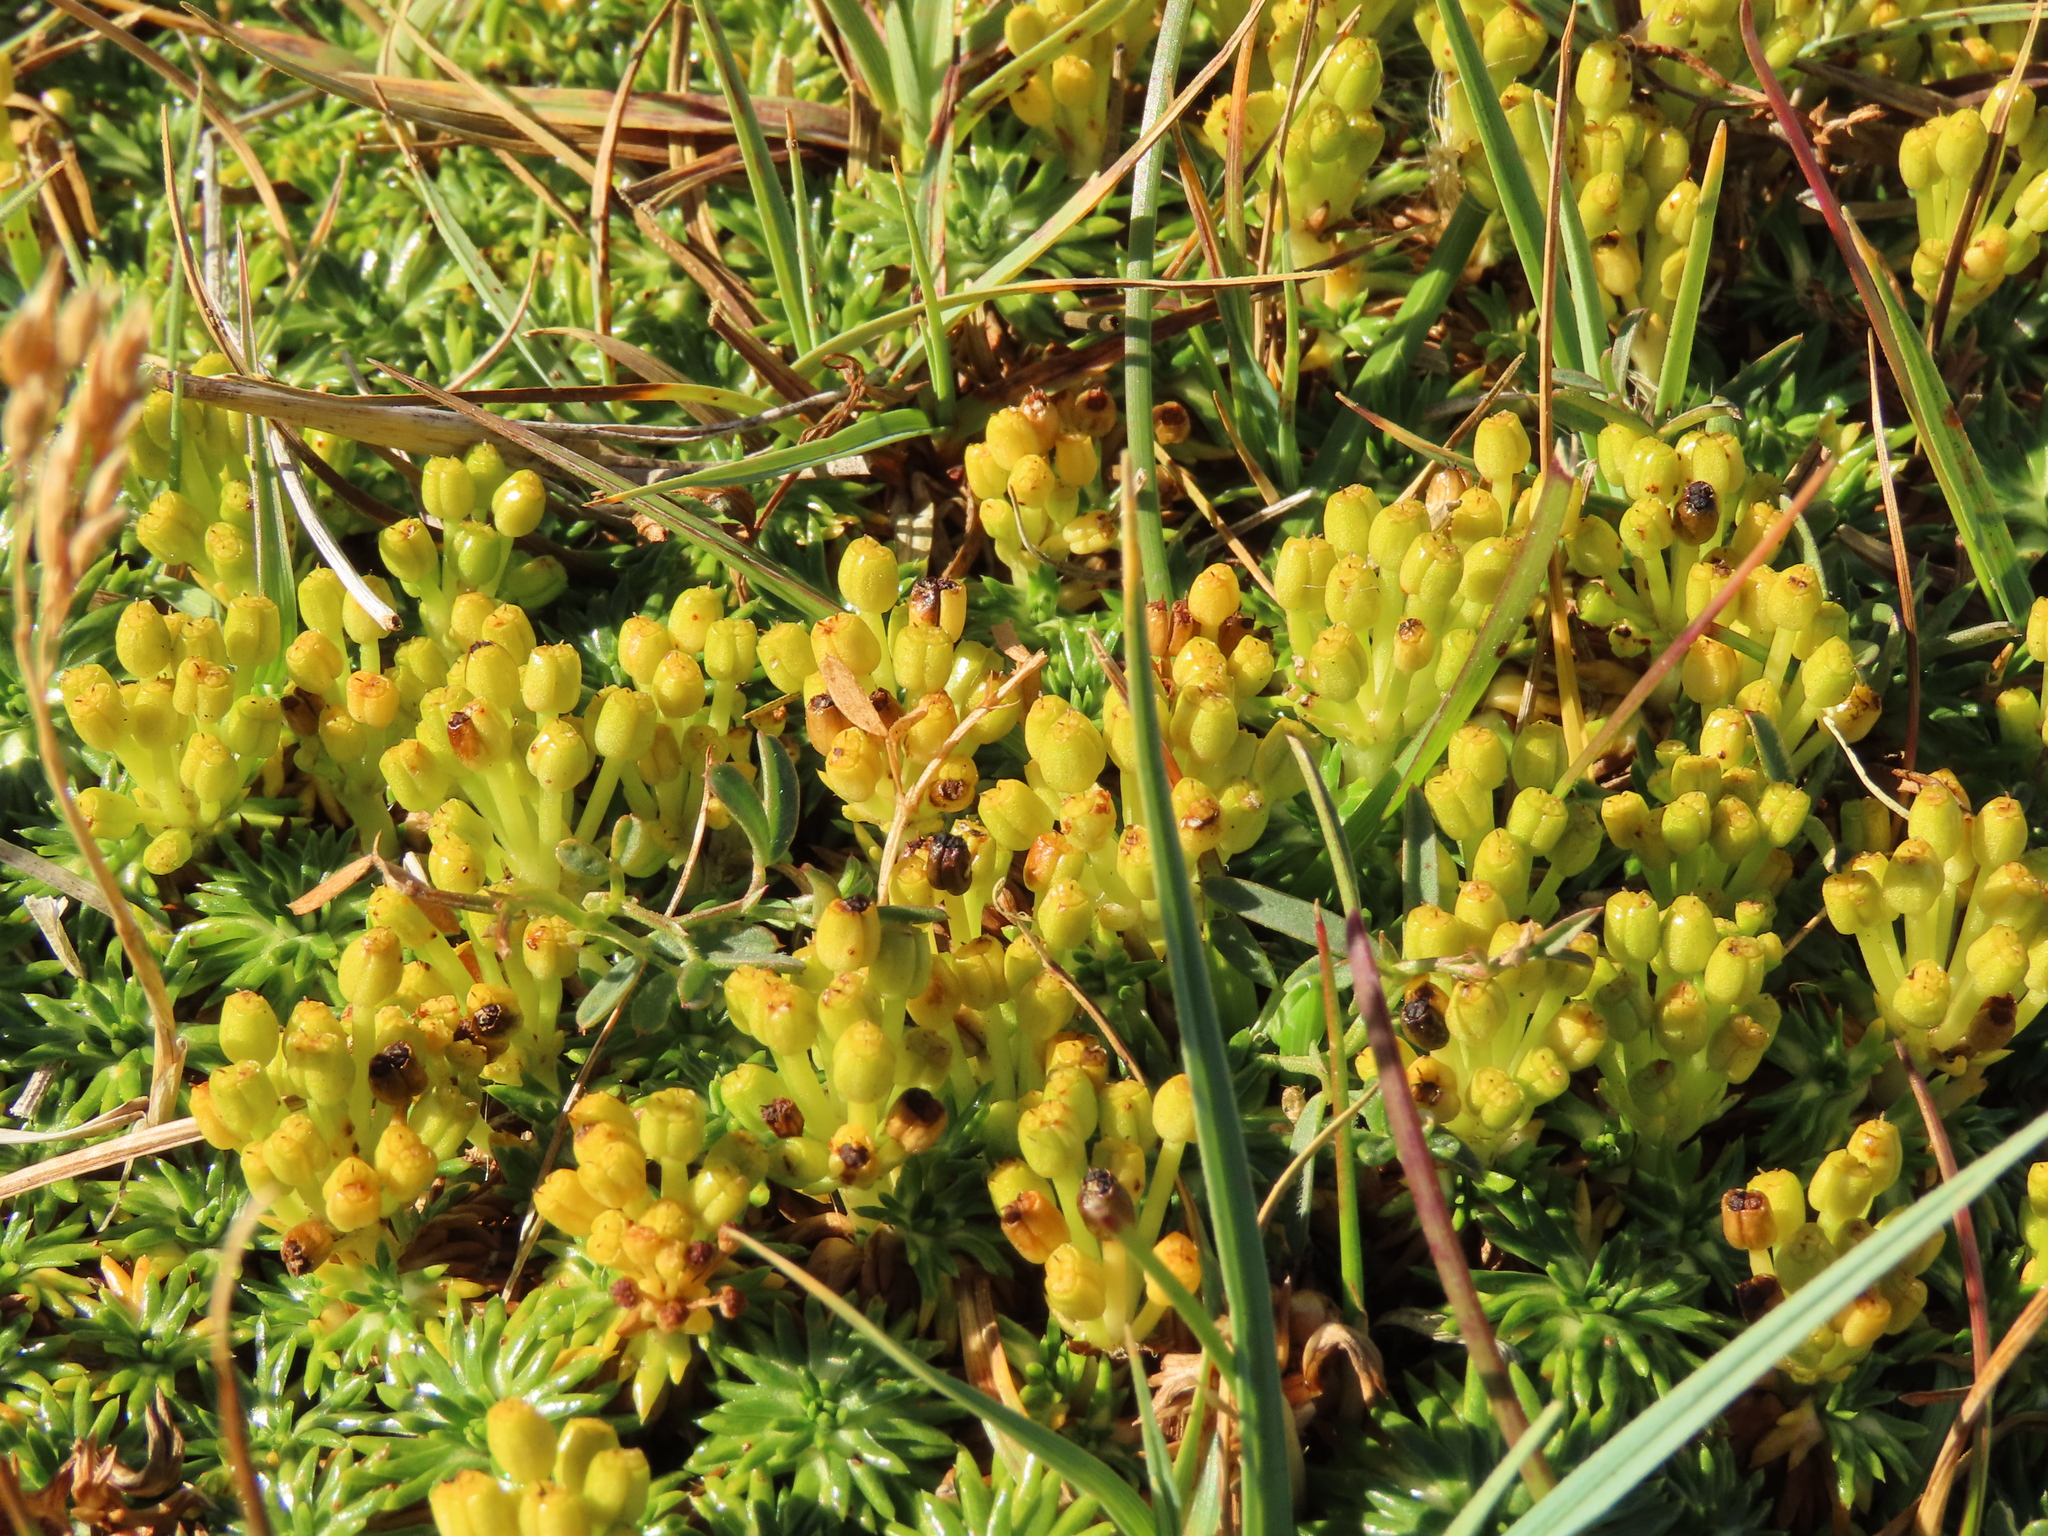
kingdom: Plantae
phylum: Tracheophyta
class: Magnoliopsida
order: Apiales
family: Apiaceae
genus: Azorella
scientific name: Azorella trifurcata
